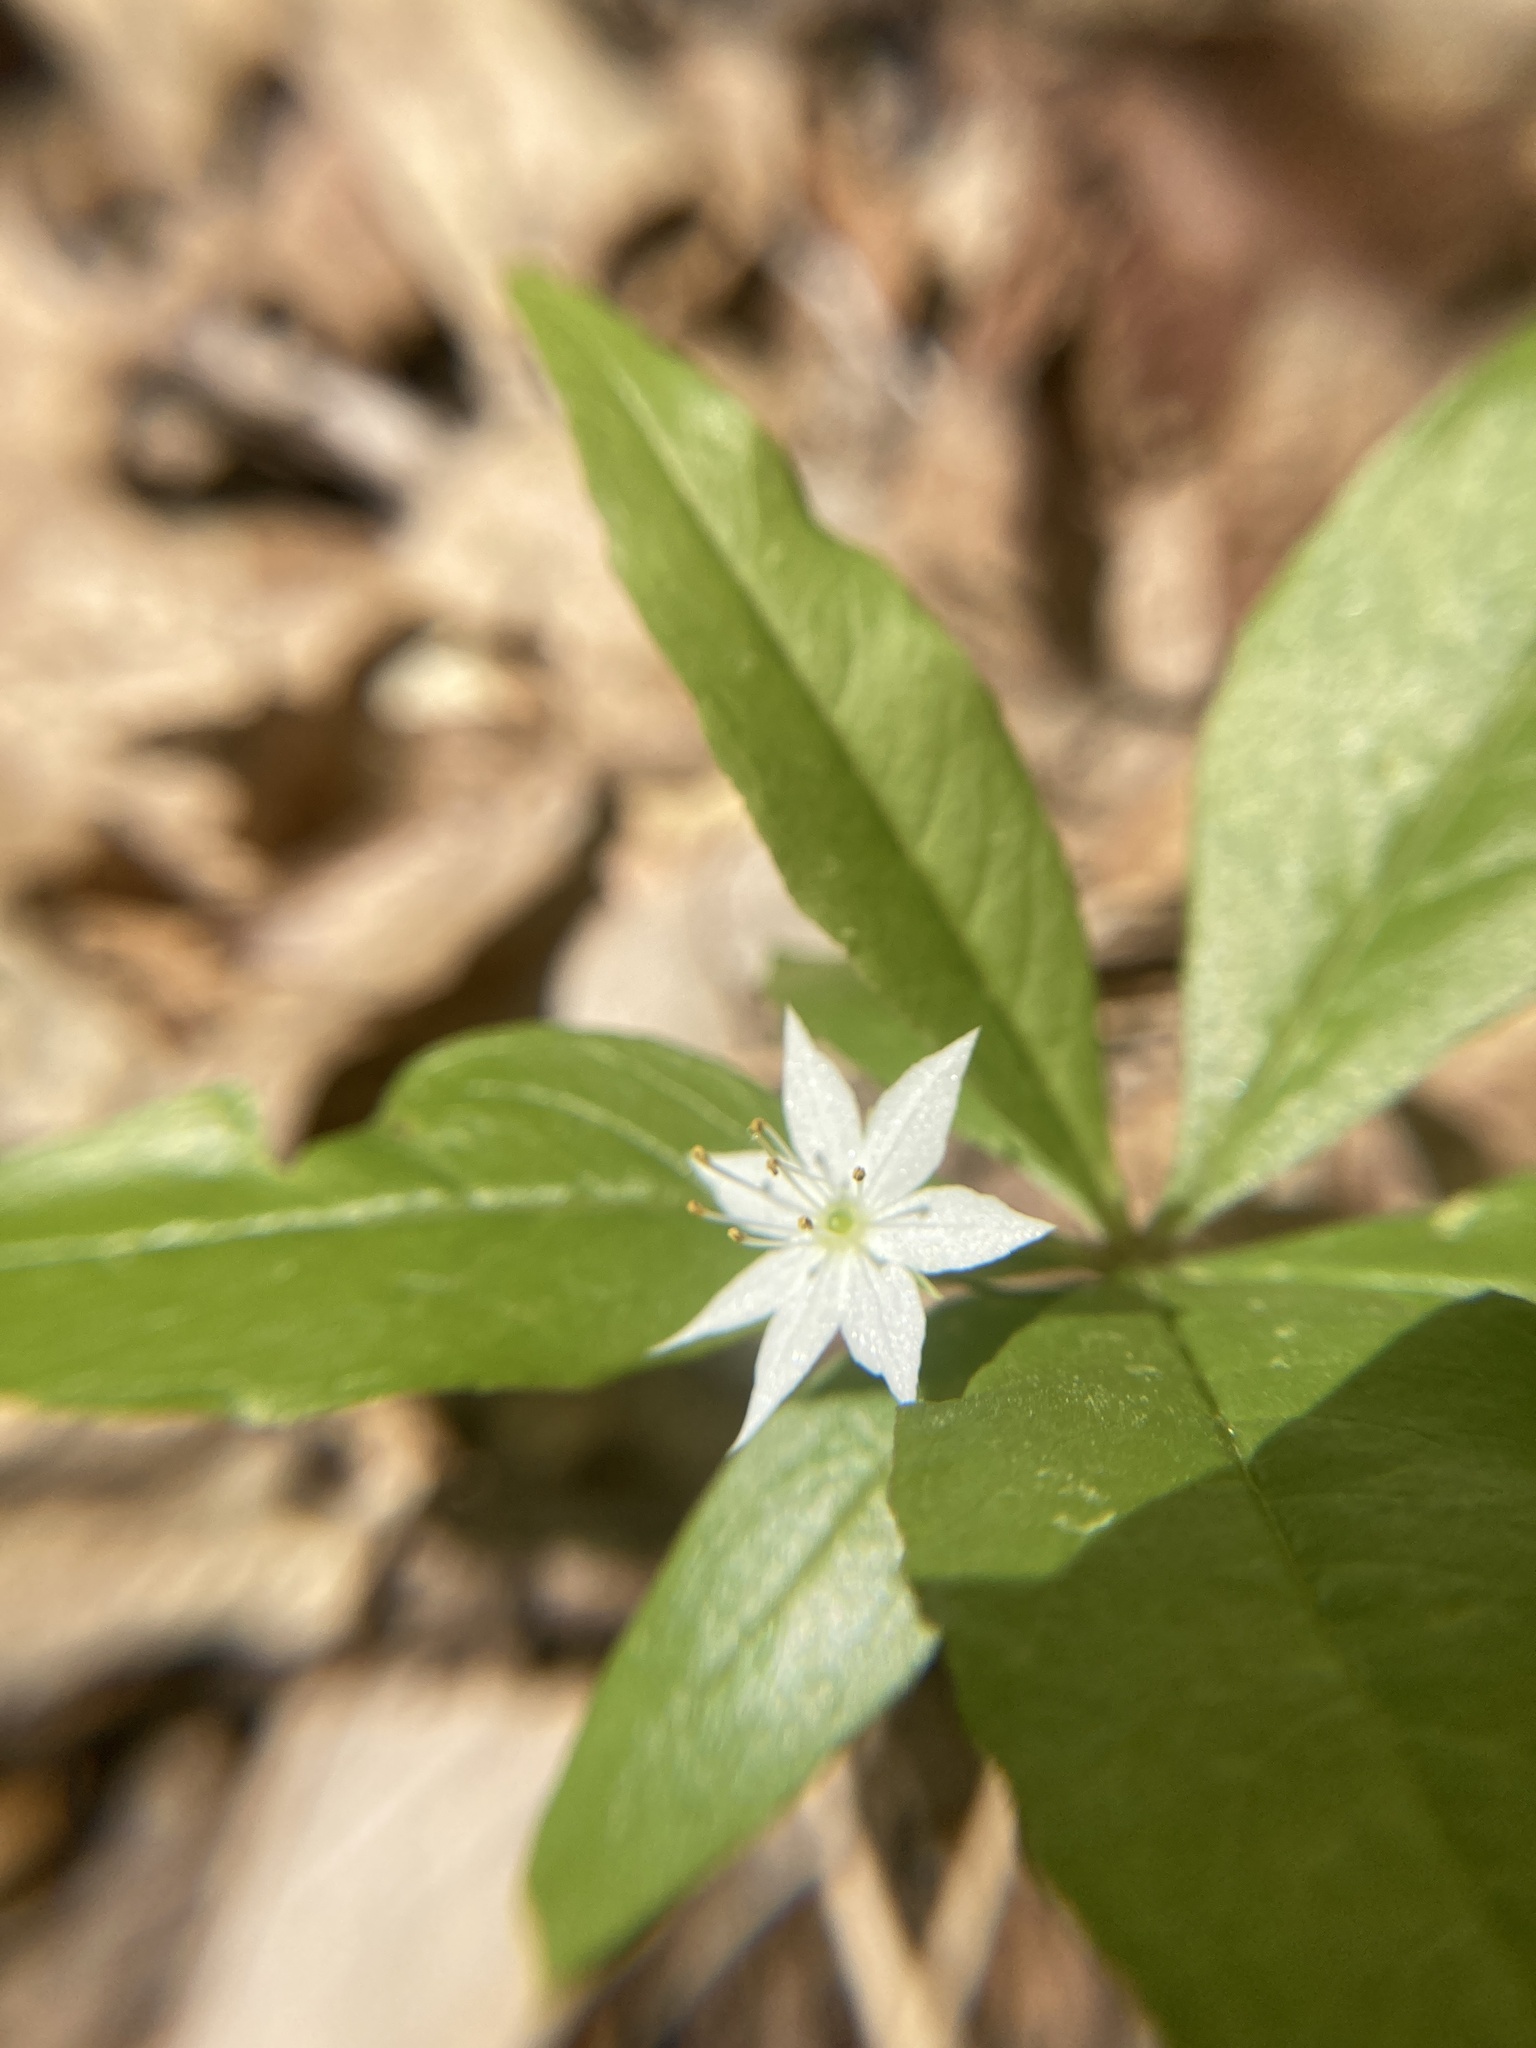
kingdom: Plantae
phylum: Tracheophyta
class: Magnoliopsida
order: Ericales
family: Primulaceae
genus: Lysimachia
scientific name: Lysimachia borealis
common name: American starflower
